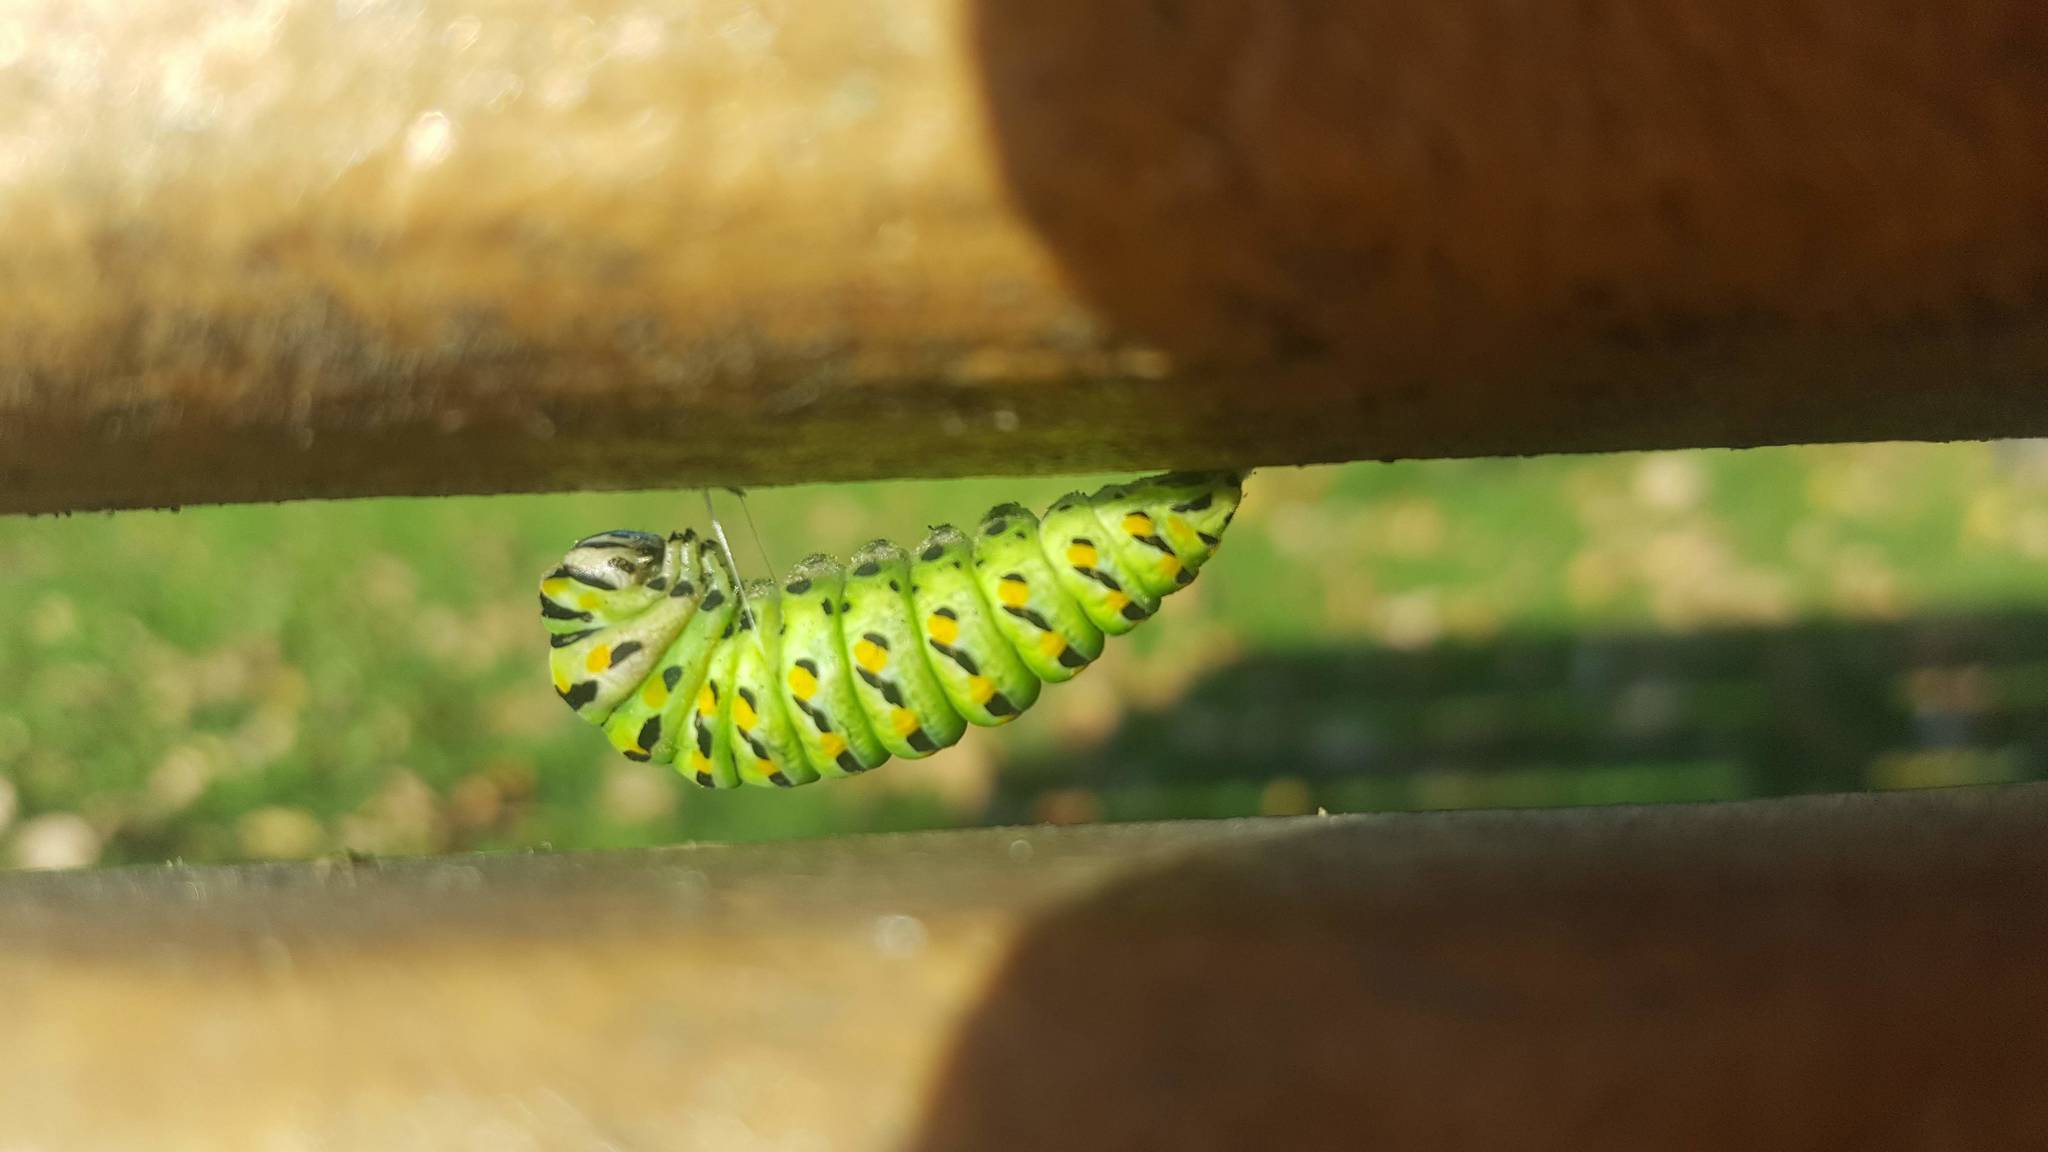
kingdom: Animalia
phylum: Arthropoda
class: Insecta
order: Lepidoptera
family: Papilionidae
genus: Papilio
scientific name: Papilio polyxenes
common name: Black swallowtail
